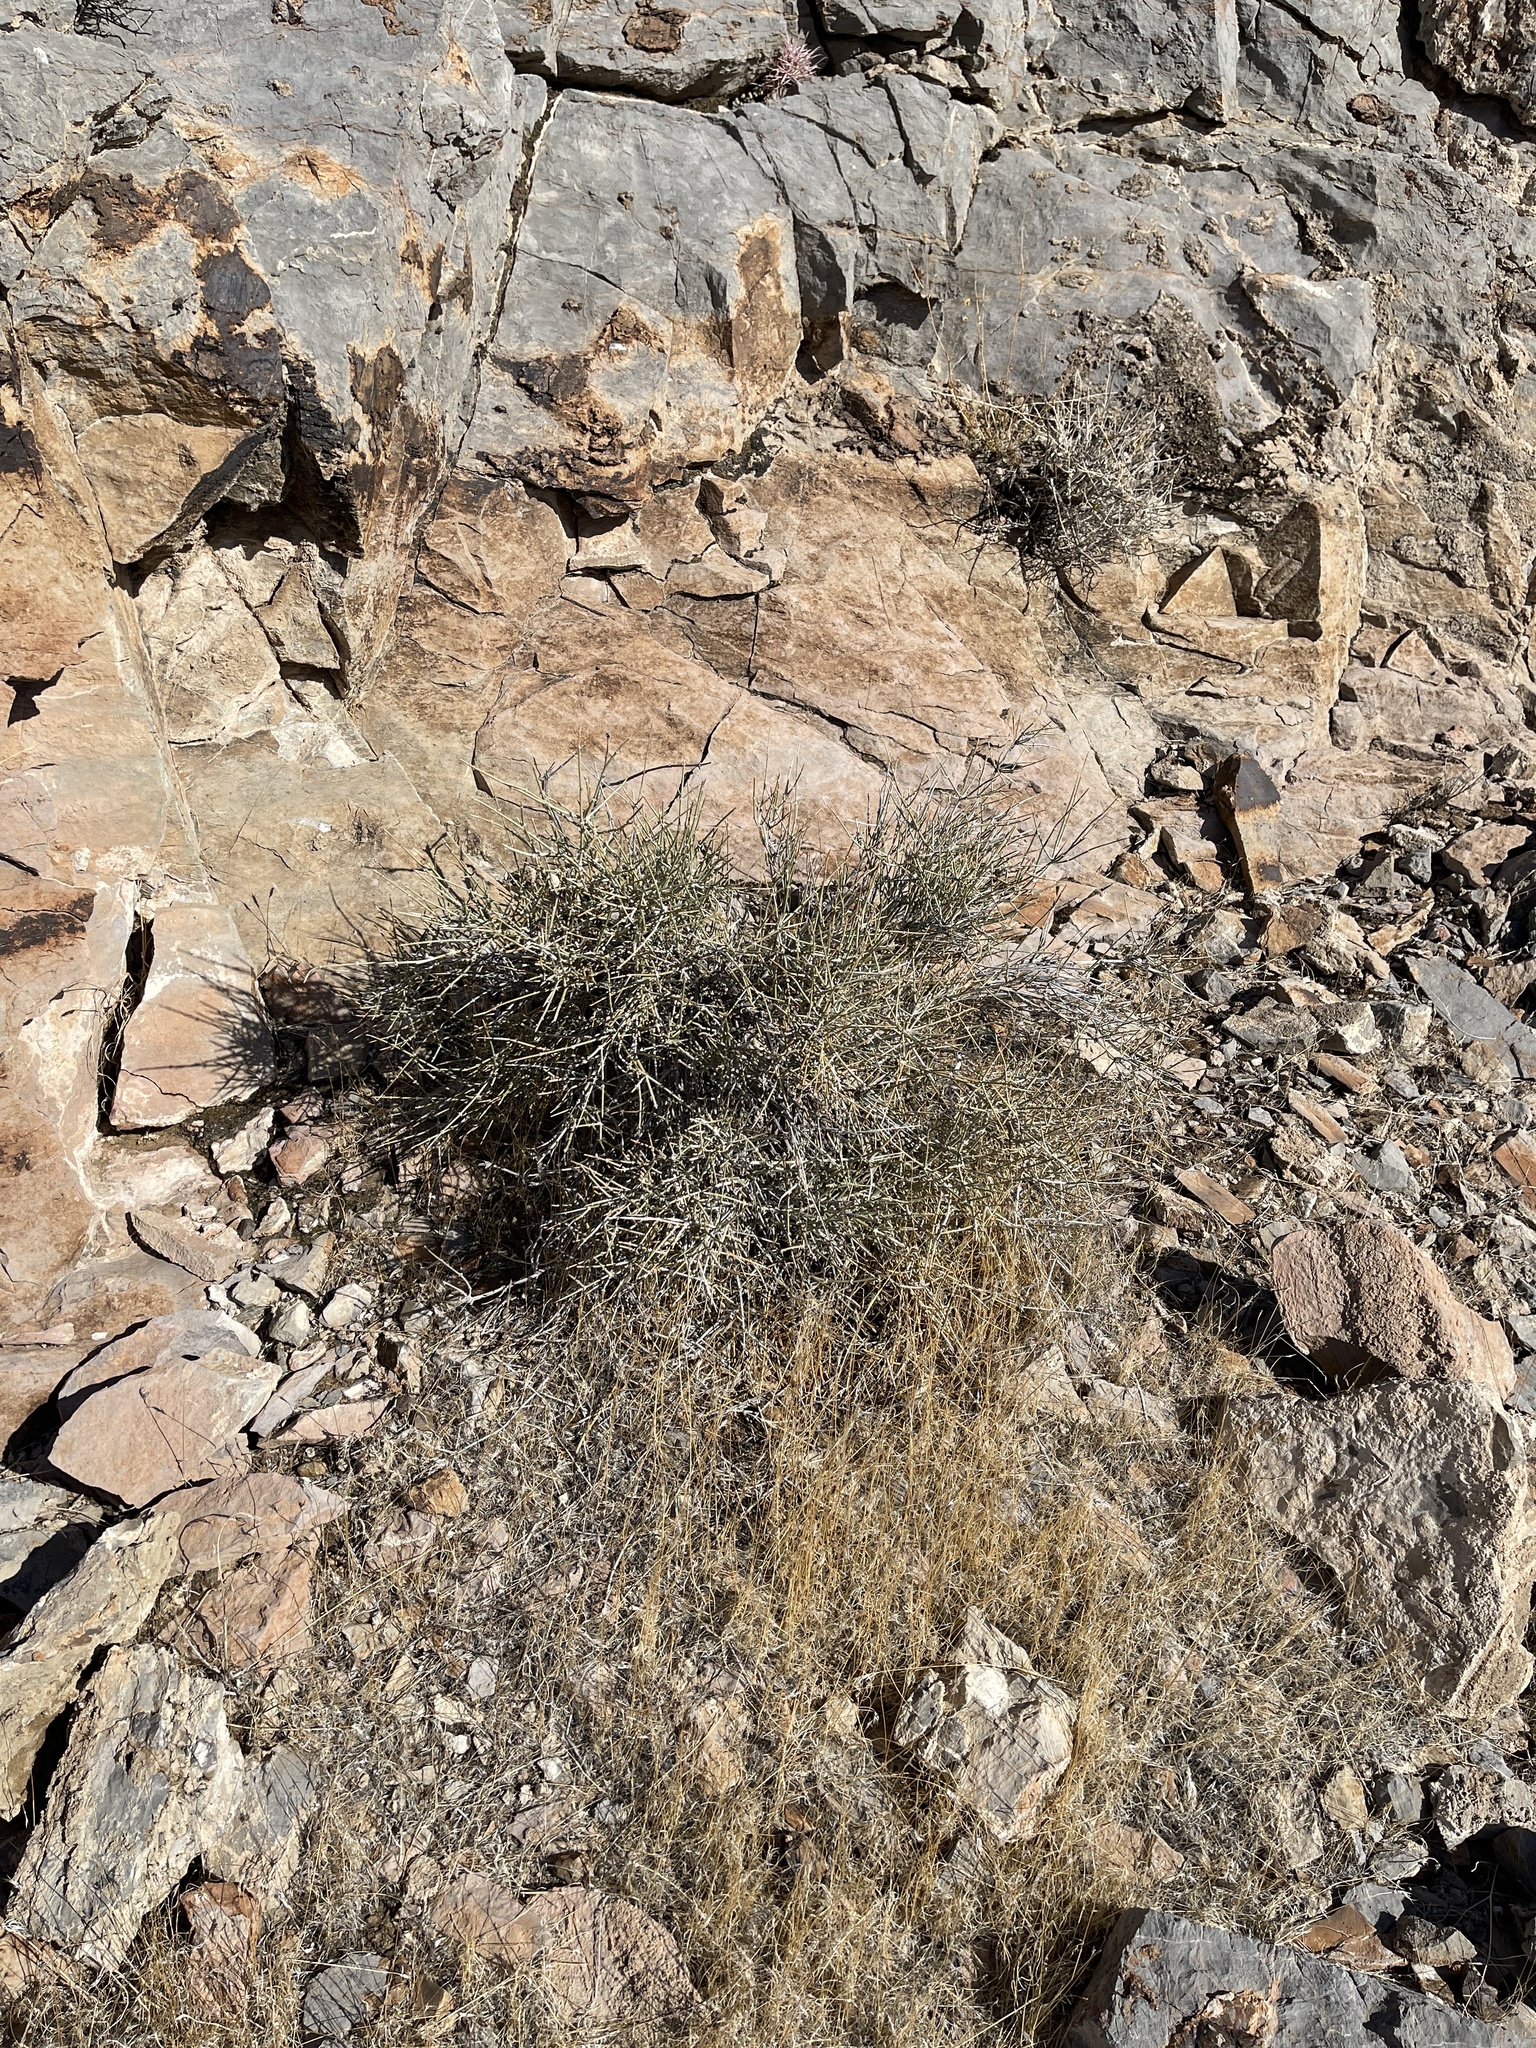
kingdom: Plantae
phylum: Tracheophyta
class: Gnetopsida
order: Ephedrales
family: Ephedraceae
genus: Ephedra
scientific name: Ephedra nevadensis
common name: Gray ephedra
